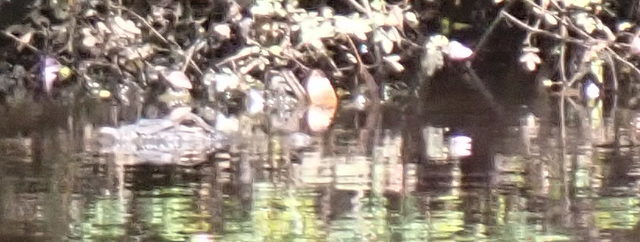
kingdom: Animalia
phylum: Chordata
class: Crocodylia
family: Alligatoridae
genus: Alligator
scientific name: Alligator mississippiensis
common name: American alligator
